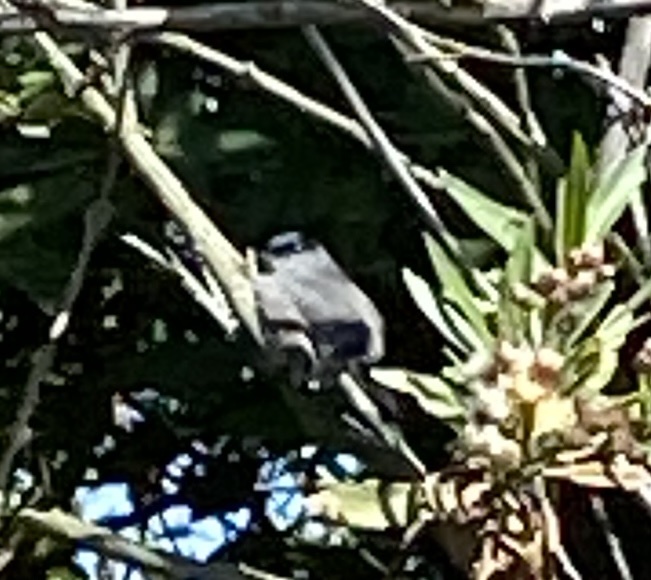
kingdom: Animalia
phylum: Chordata
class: Aves
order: Passeriformes
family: Polioptilidae
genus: Polioptila
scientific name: Polioptila californica
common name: California gnatcatcher
